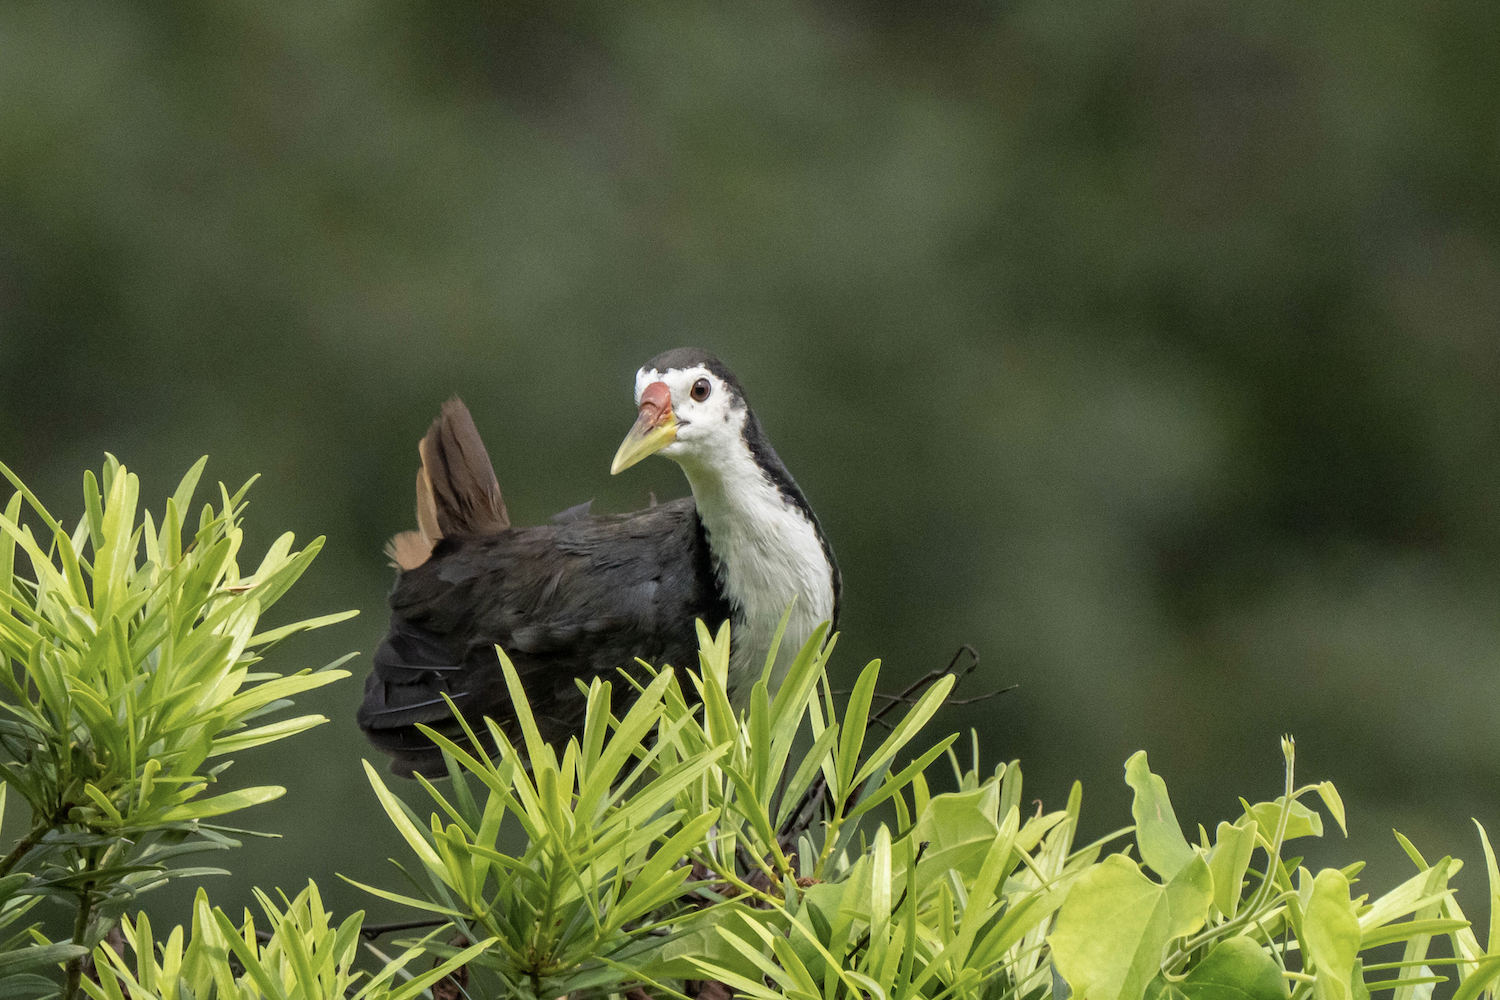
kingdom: Animalia
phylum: Chordata
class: Aves
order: Gruiformes
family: Rallidae
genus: Amaurornis
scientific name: Amaurornis phoenicurus
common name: White-breasted waterhen
